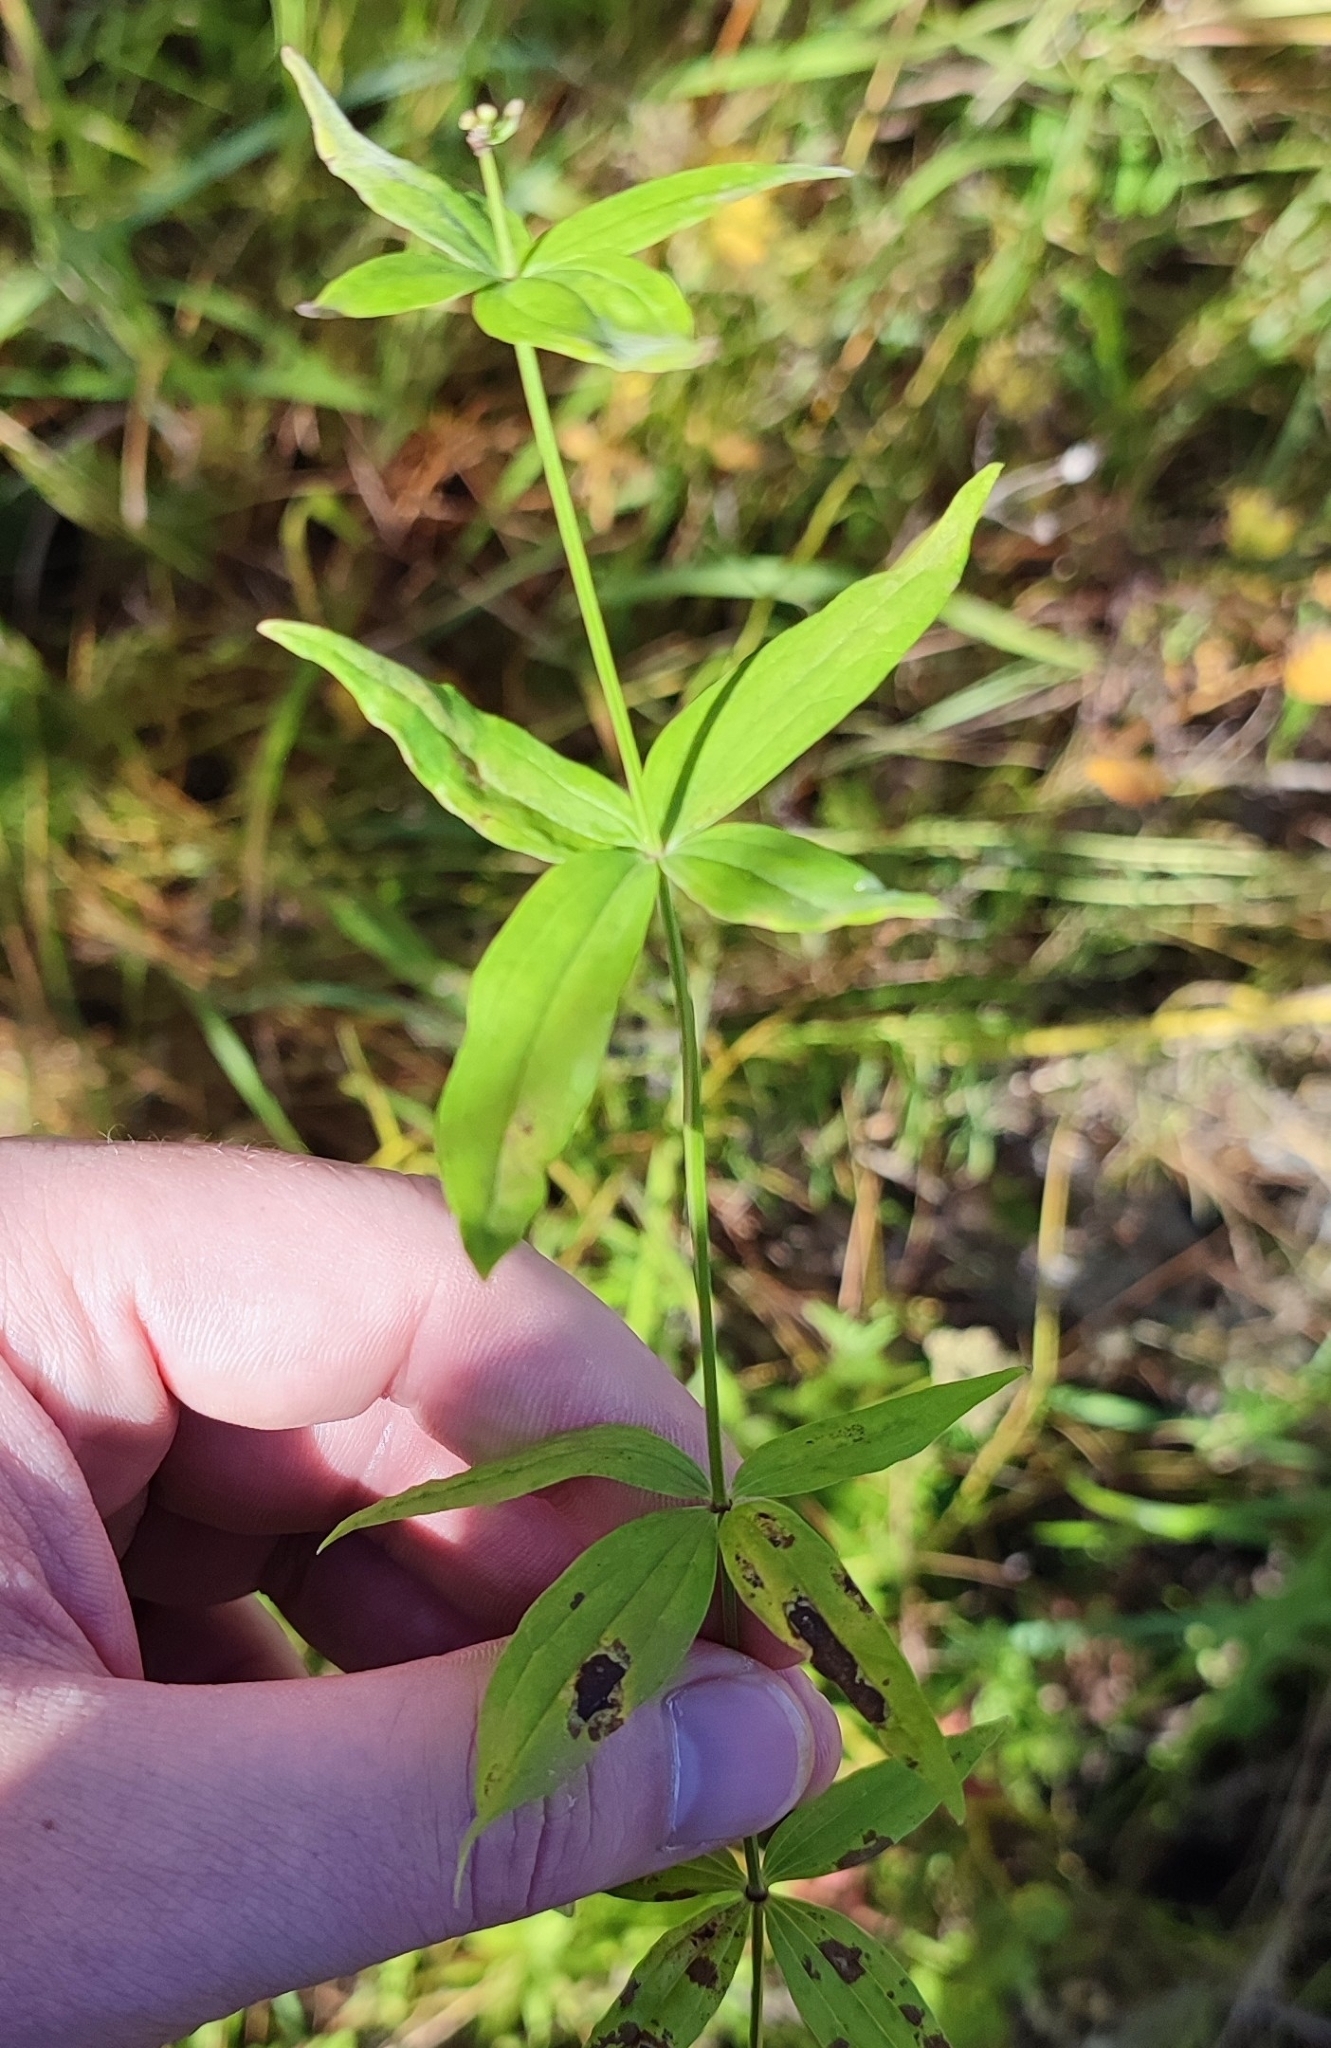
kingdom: Plantae
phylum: Tracheophyta
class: Magnoliopsida
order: Gentianales
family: Rubiaceae
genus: Galium
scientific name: Galium rubioides
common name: European bedstraw
